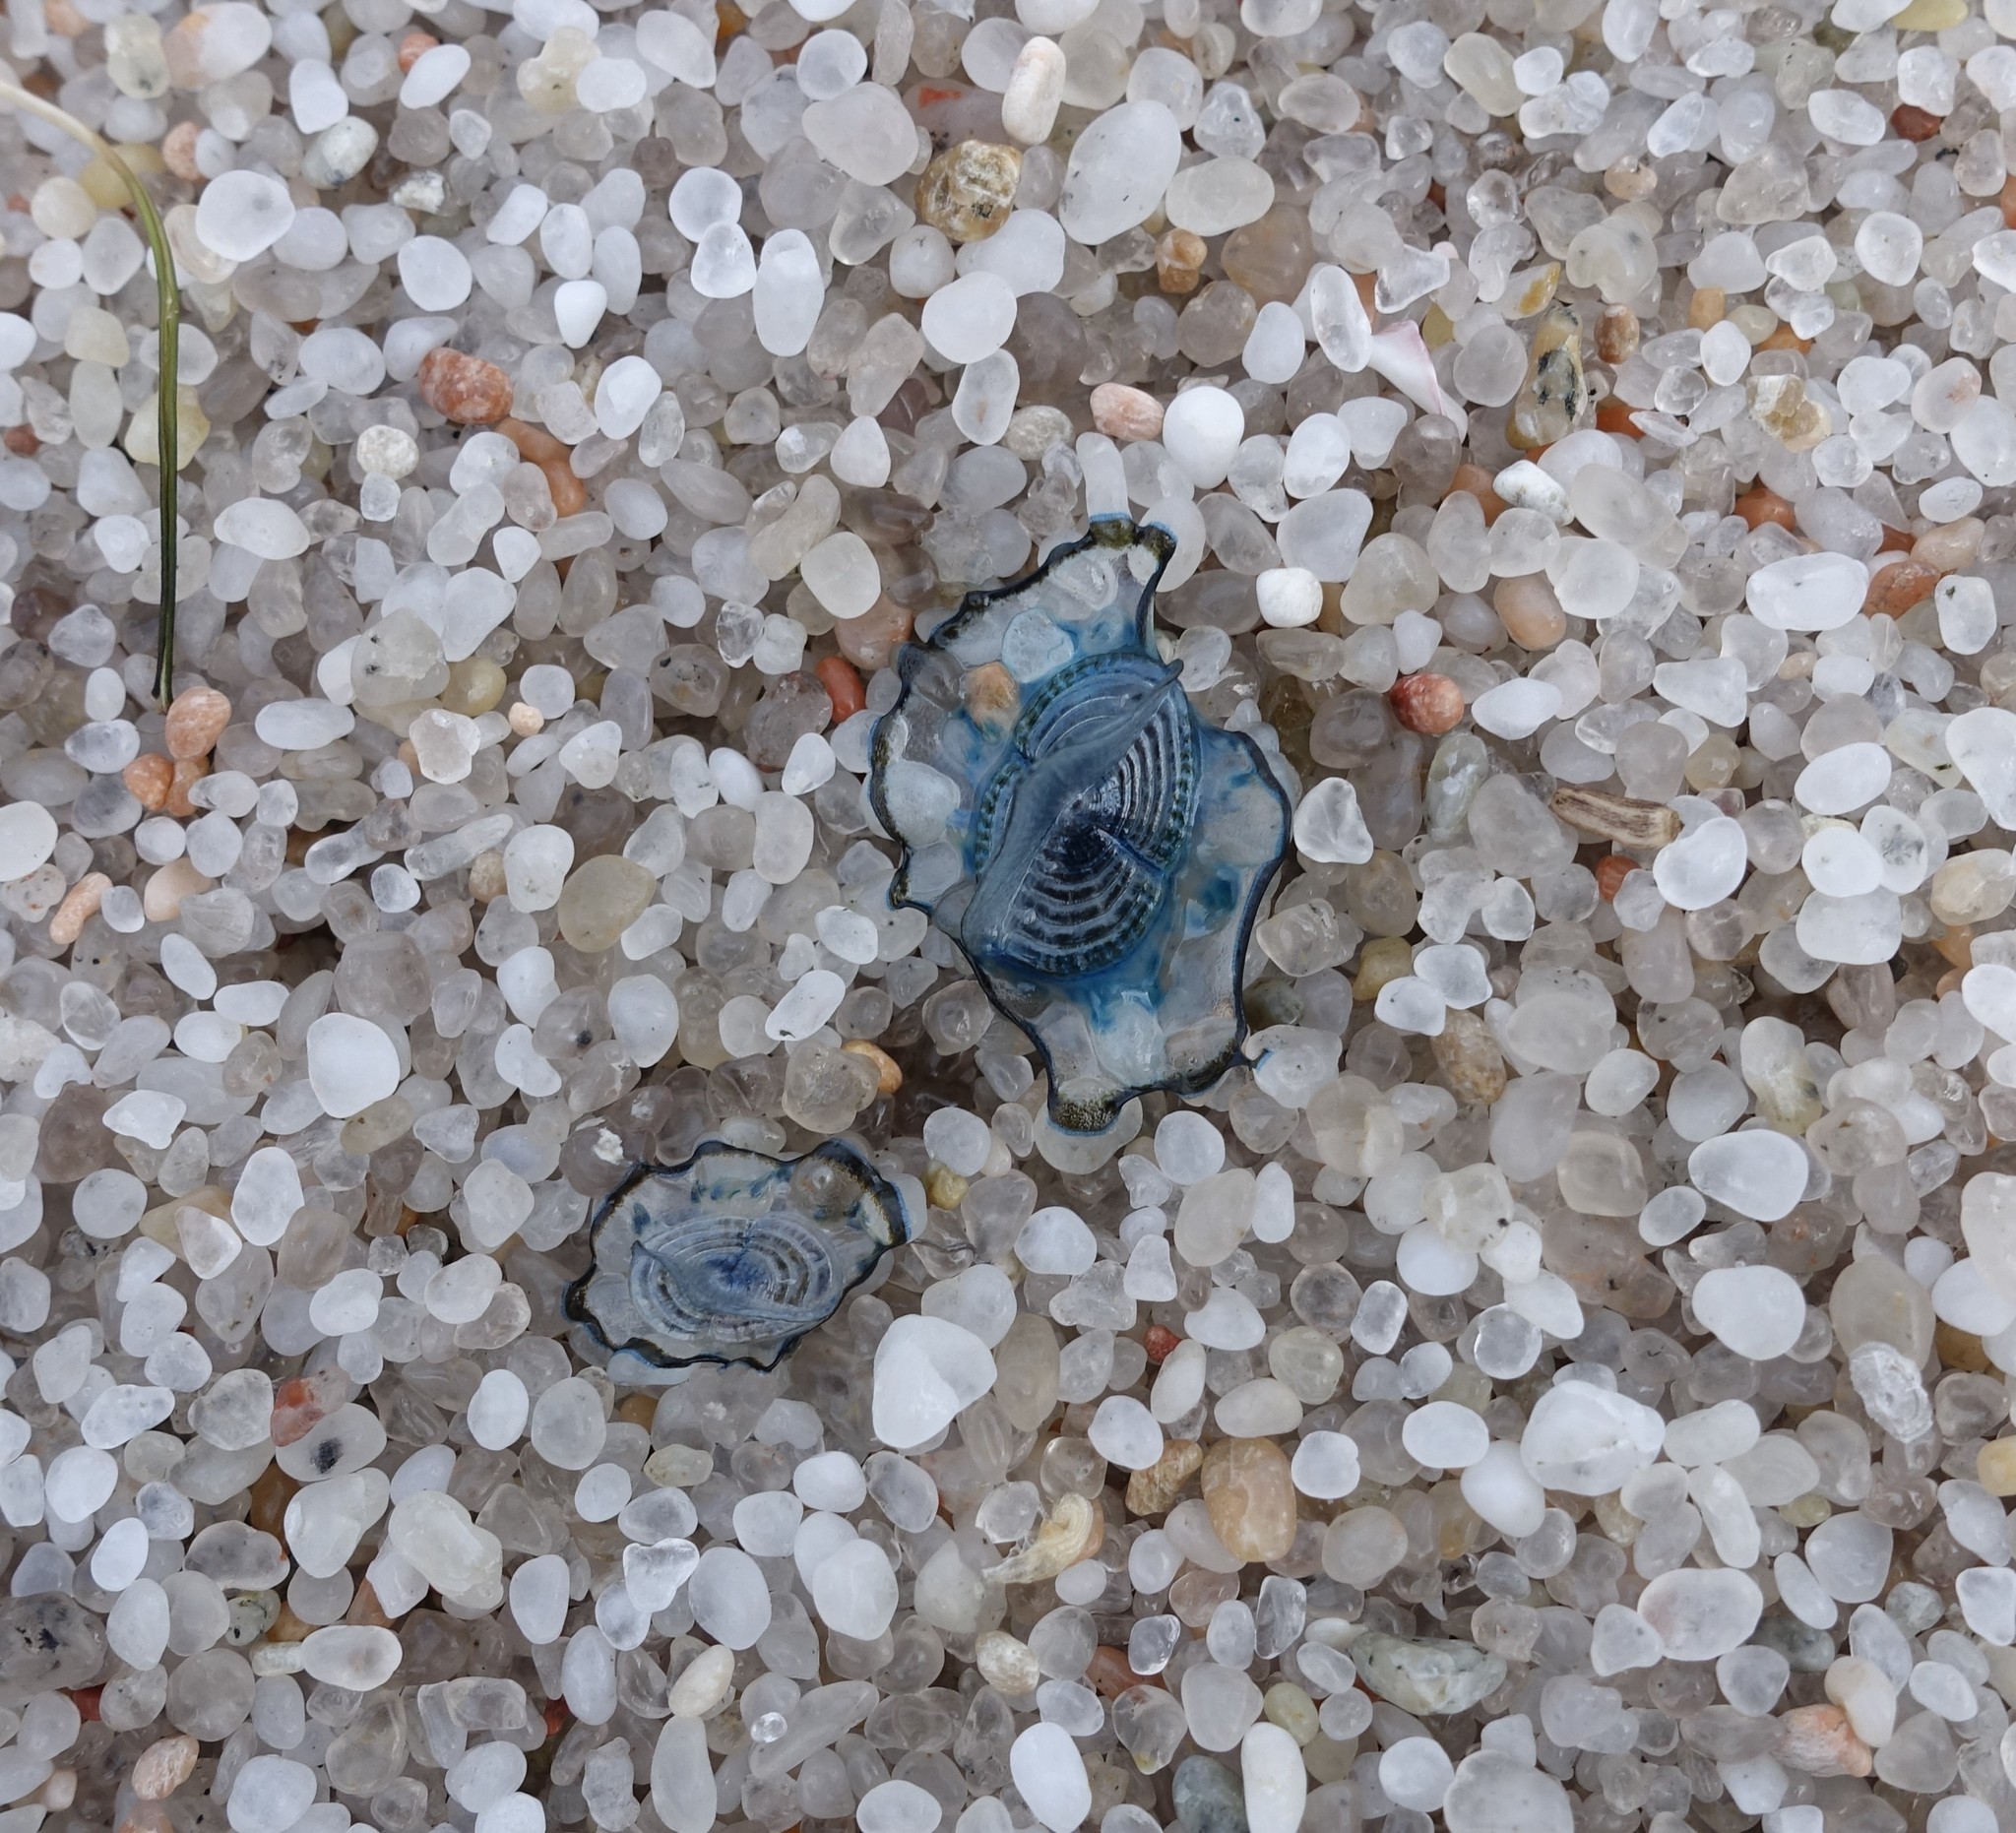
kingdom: Animalia
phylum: Cnidaria
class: Hydrozoa
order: Anthoathecata
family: Porpitidae
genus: Velella
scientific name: Velella velella
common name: By-the-wind-sailor
